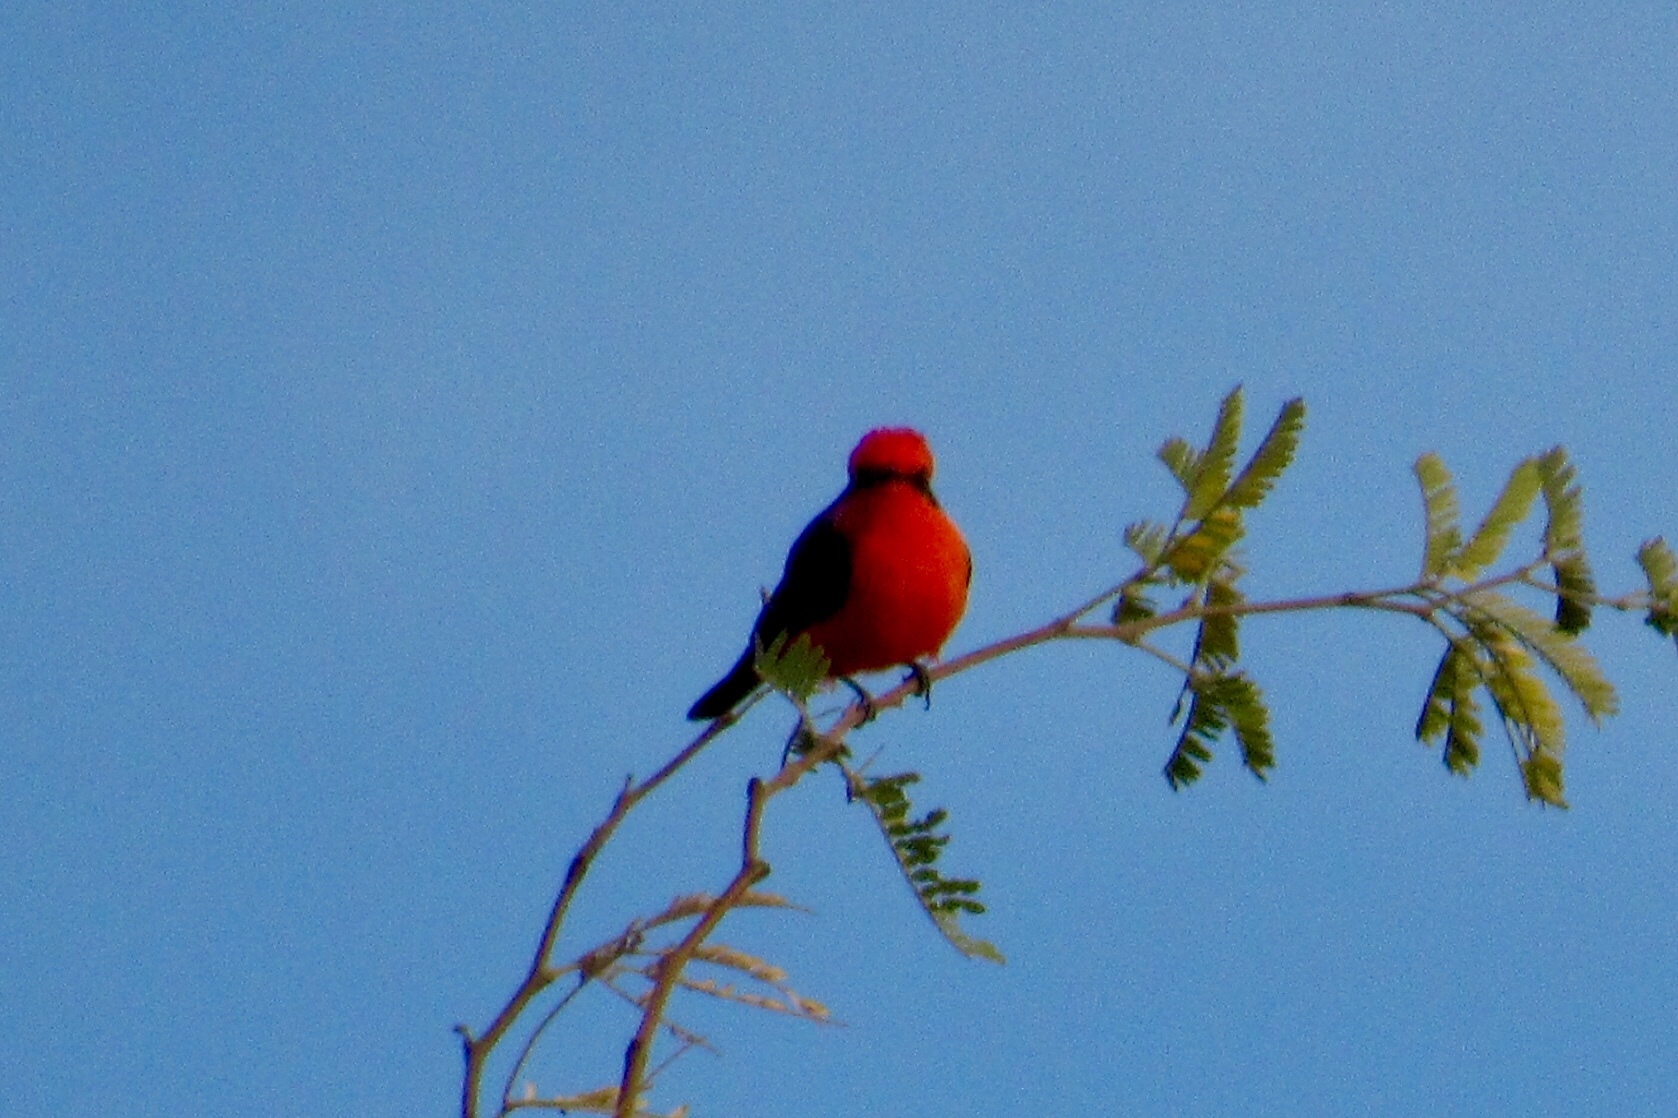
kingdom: Animalia
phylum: Chordata
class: Aves
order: Passeriformes
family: Tyrannidae
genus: Pyrocephalus
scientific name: Pyrocephalus rubinus
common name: Vermilion flycatcher
